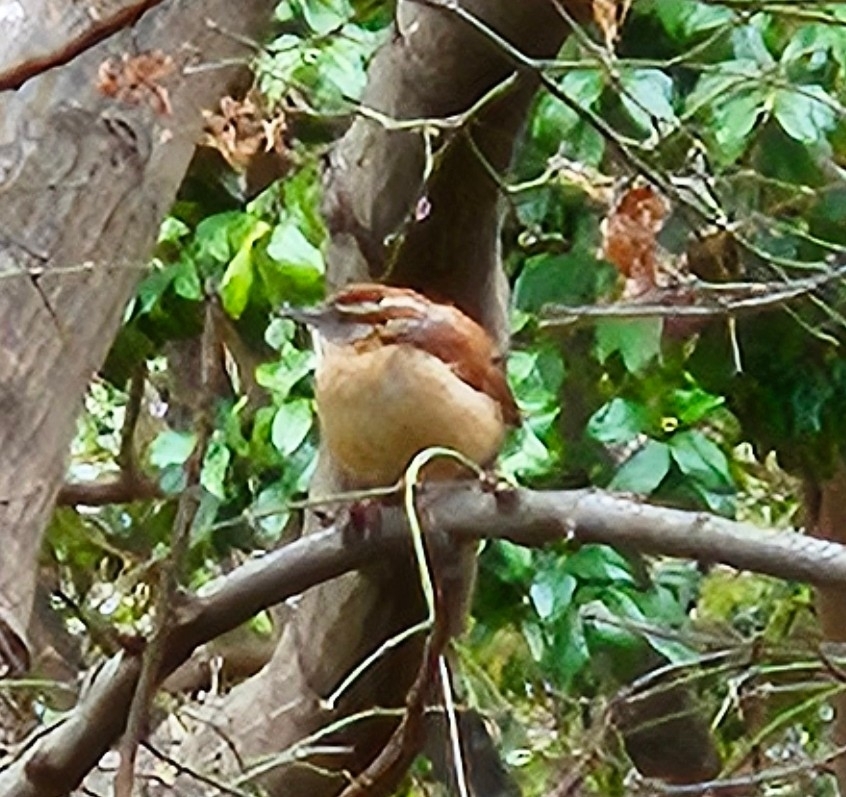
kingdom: Animalia
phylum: Chordata
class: Aves
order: Passeriformes
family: Troglodytidae
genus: Thryothorus
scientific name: Thryothorus ludovicianus
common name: Carolina wren
